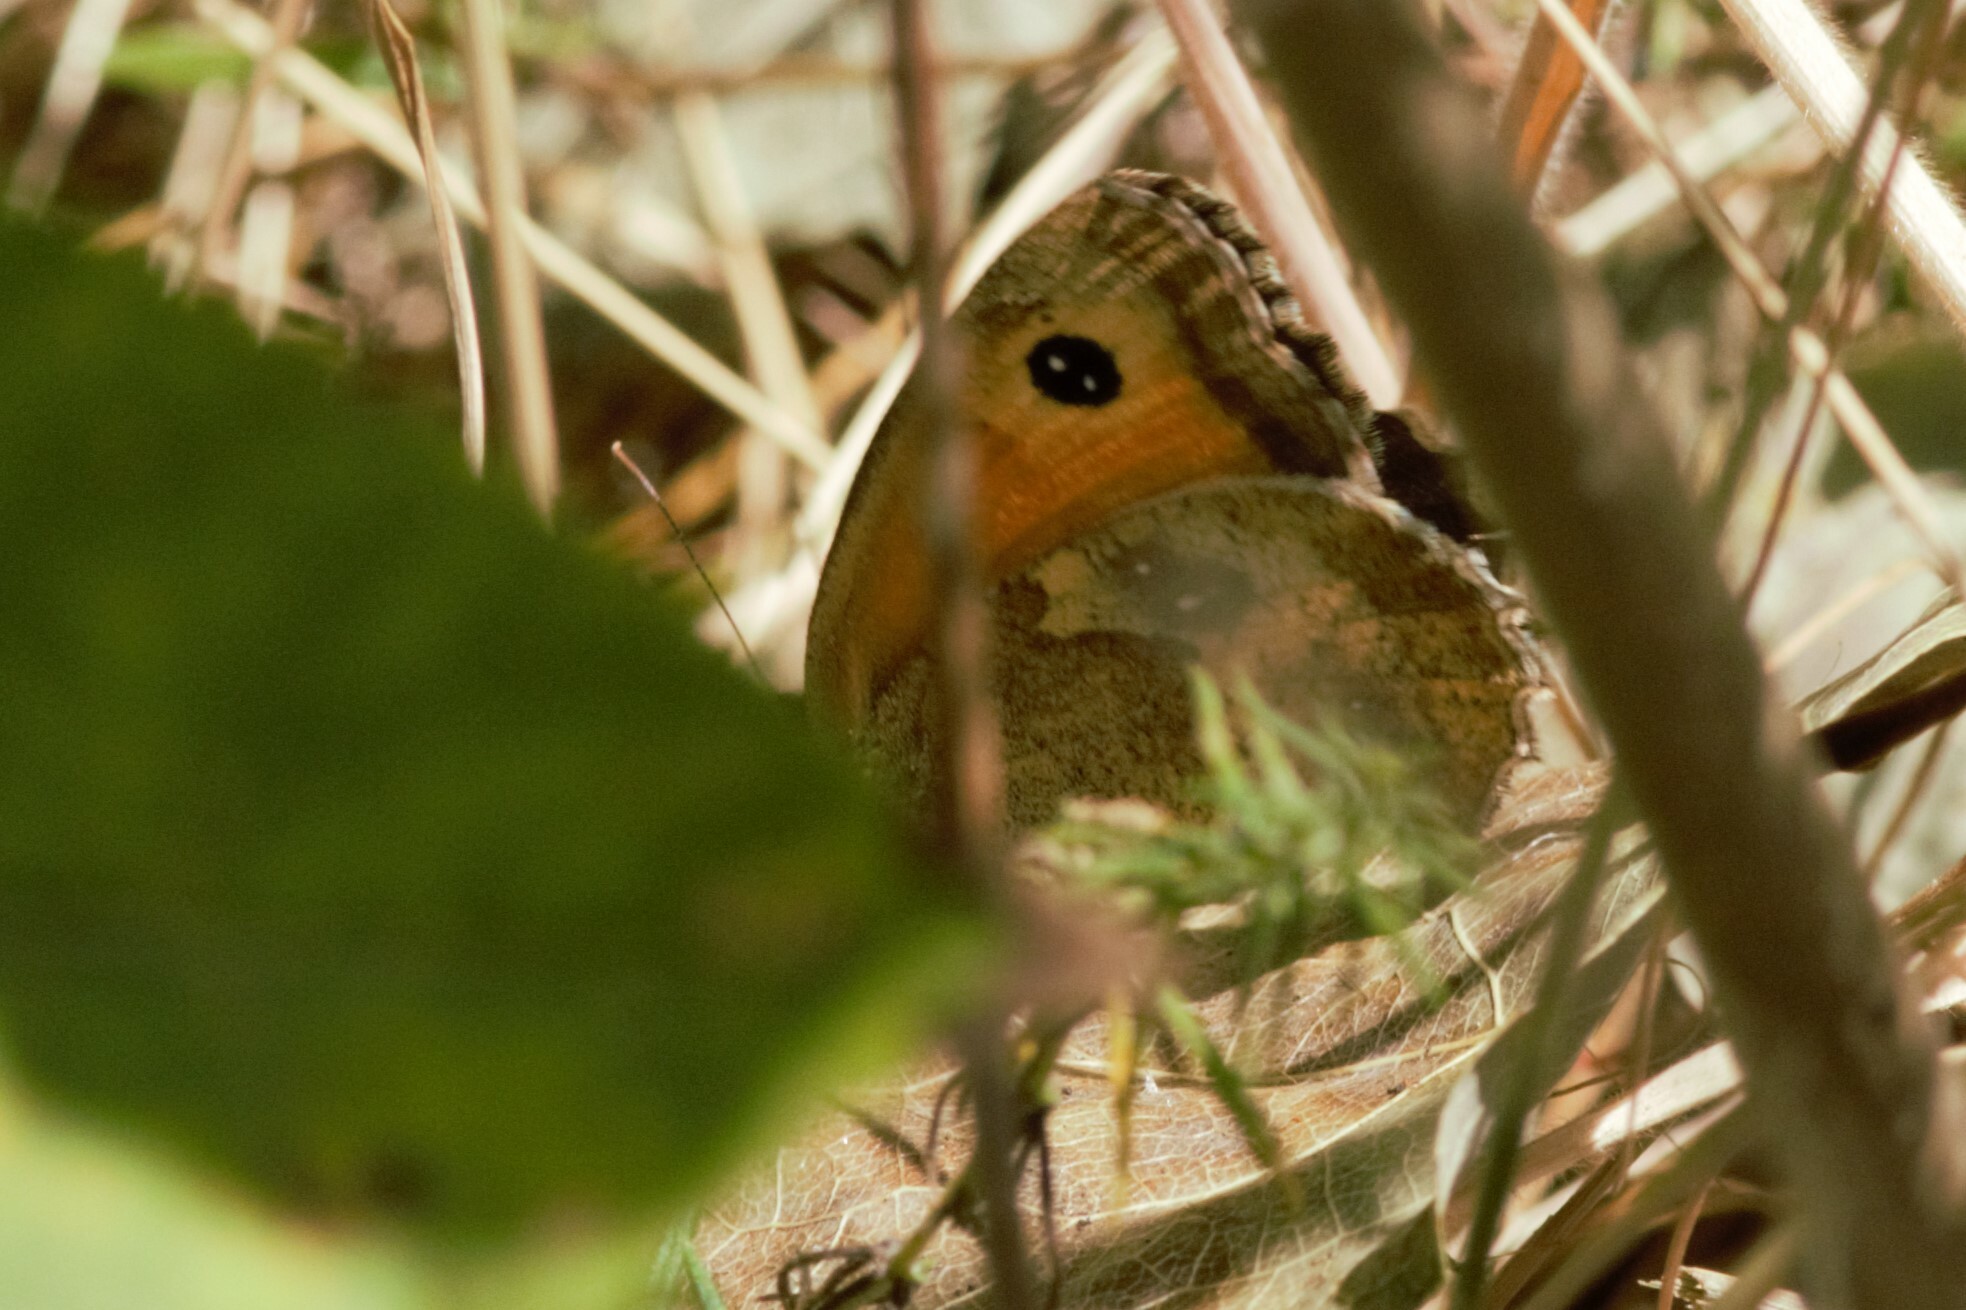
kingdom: Animalia
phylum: Arthropoda
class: Insecta
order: Lepidoptera
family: Nymphalidae
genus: Pyronia
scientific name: Pyronia tithonus
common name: Gatekeeper
